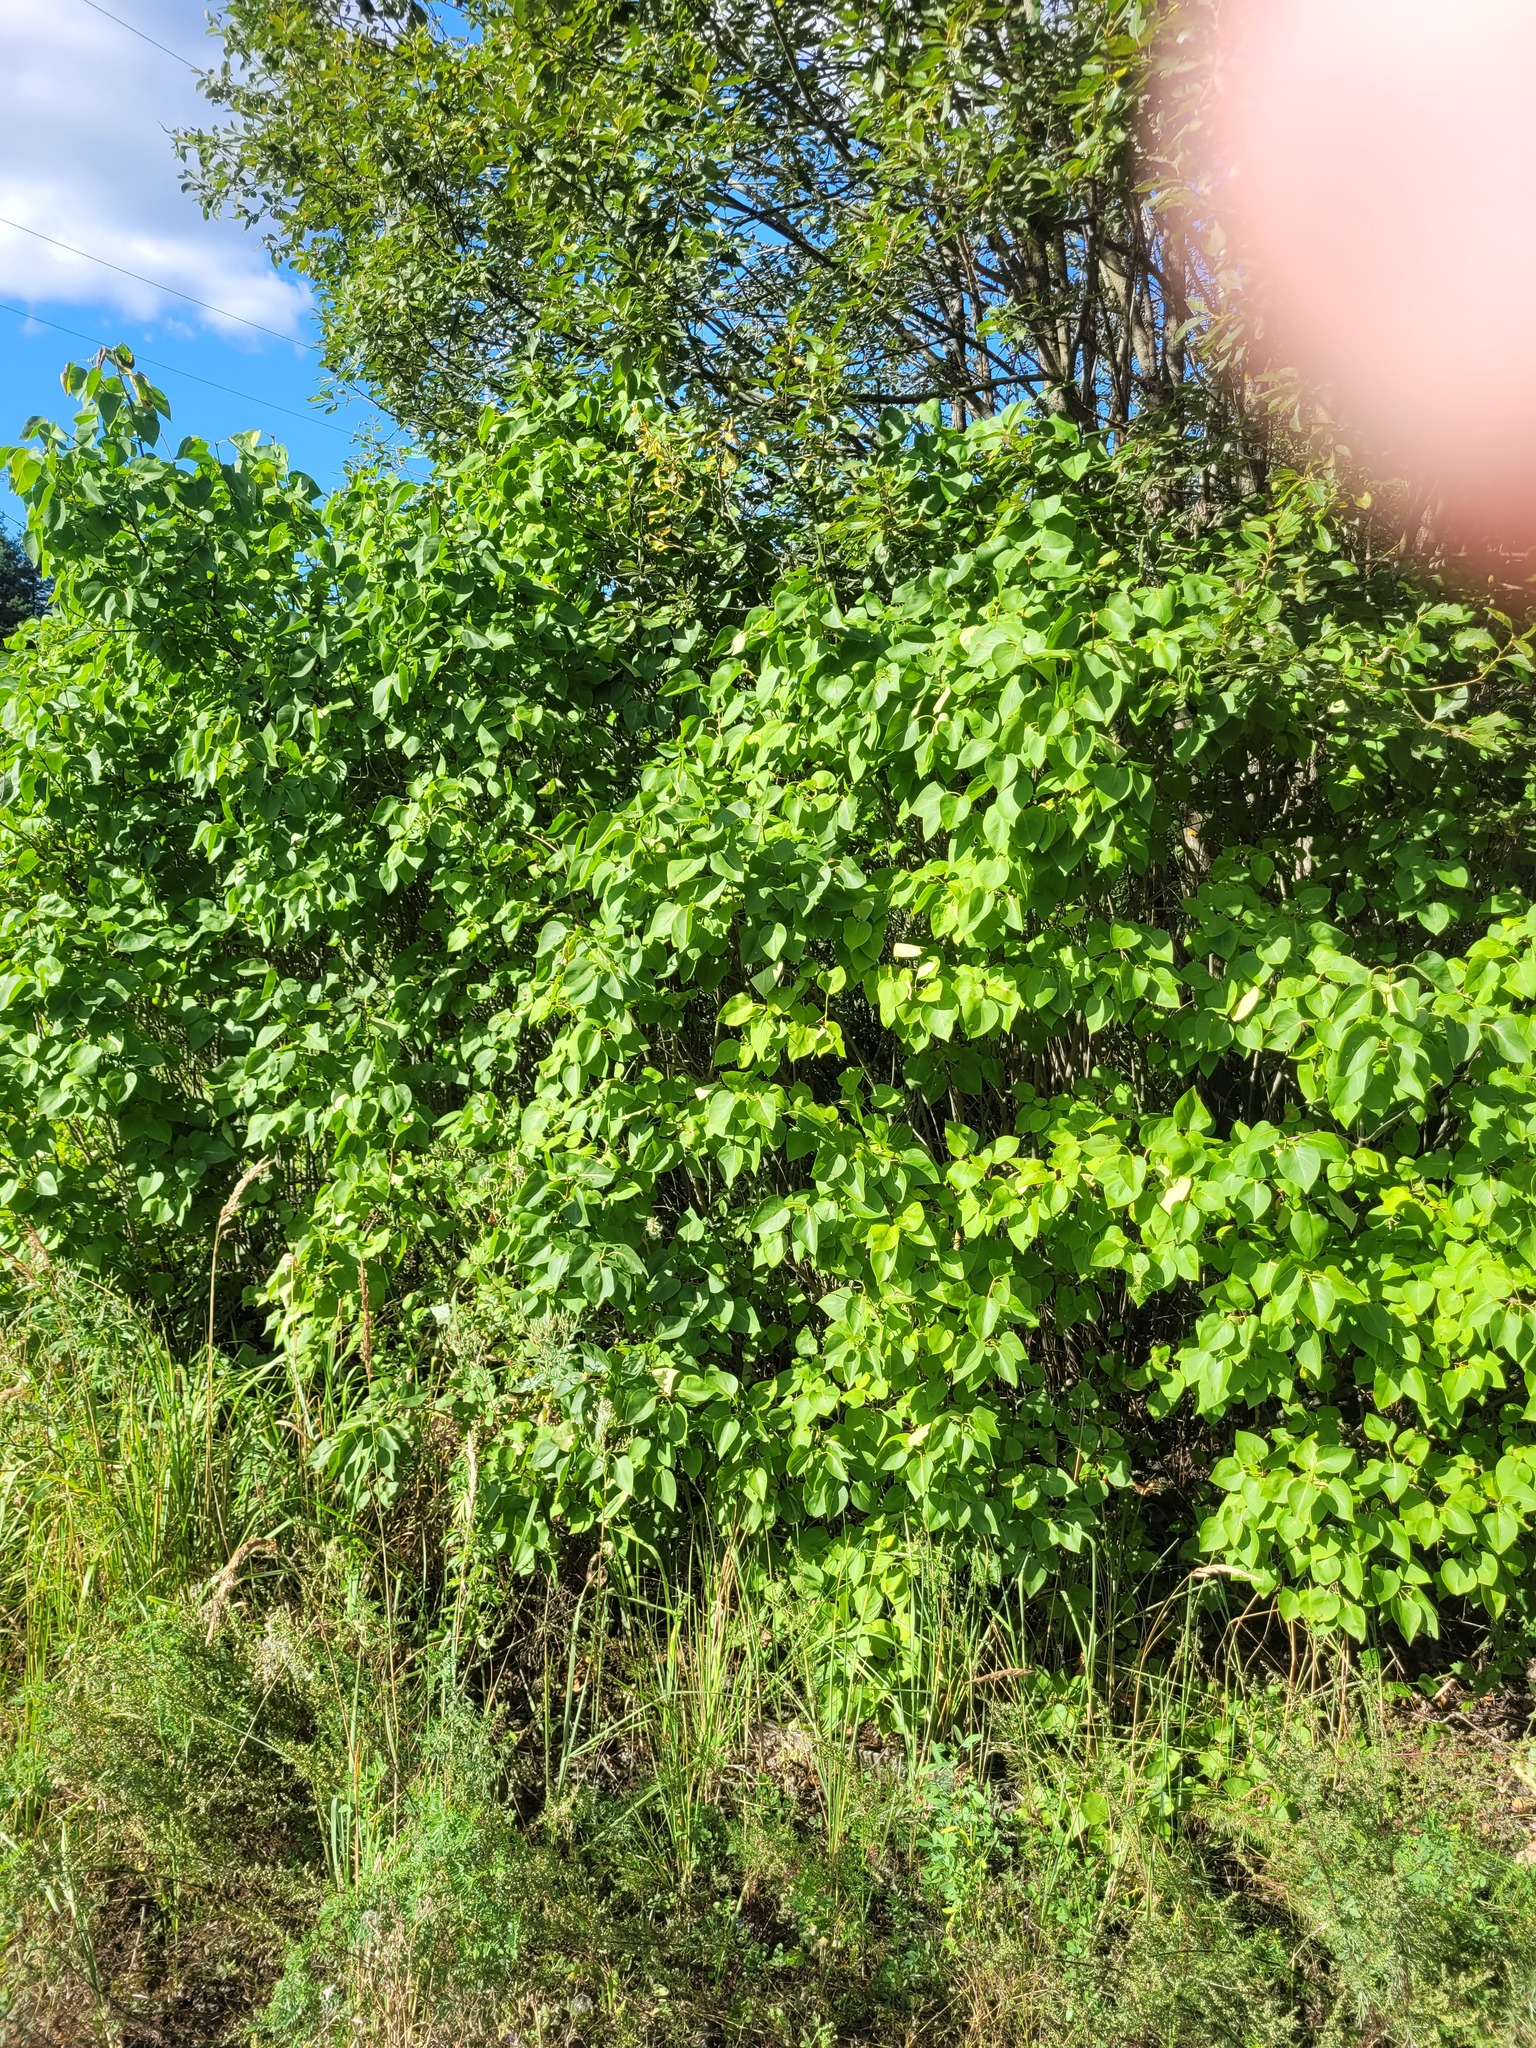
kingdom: Plantae
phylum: Tracheophyta
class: Magnoliopsida
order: Lamiales
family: Oleaceae
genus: Syringa
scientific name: Syringa vulgaris
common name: Common lilac
